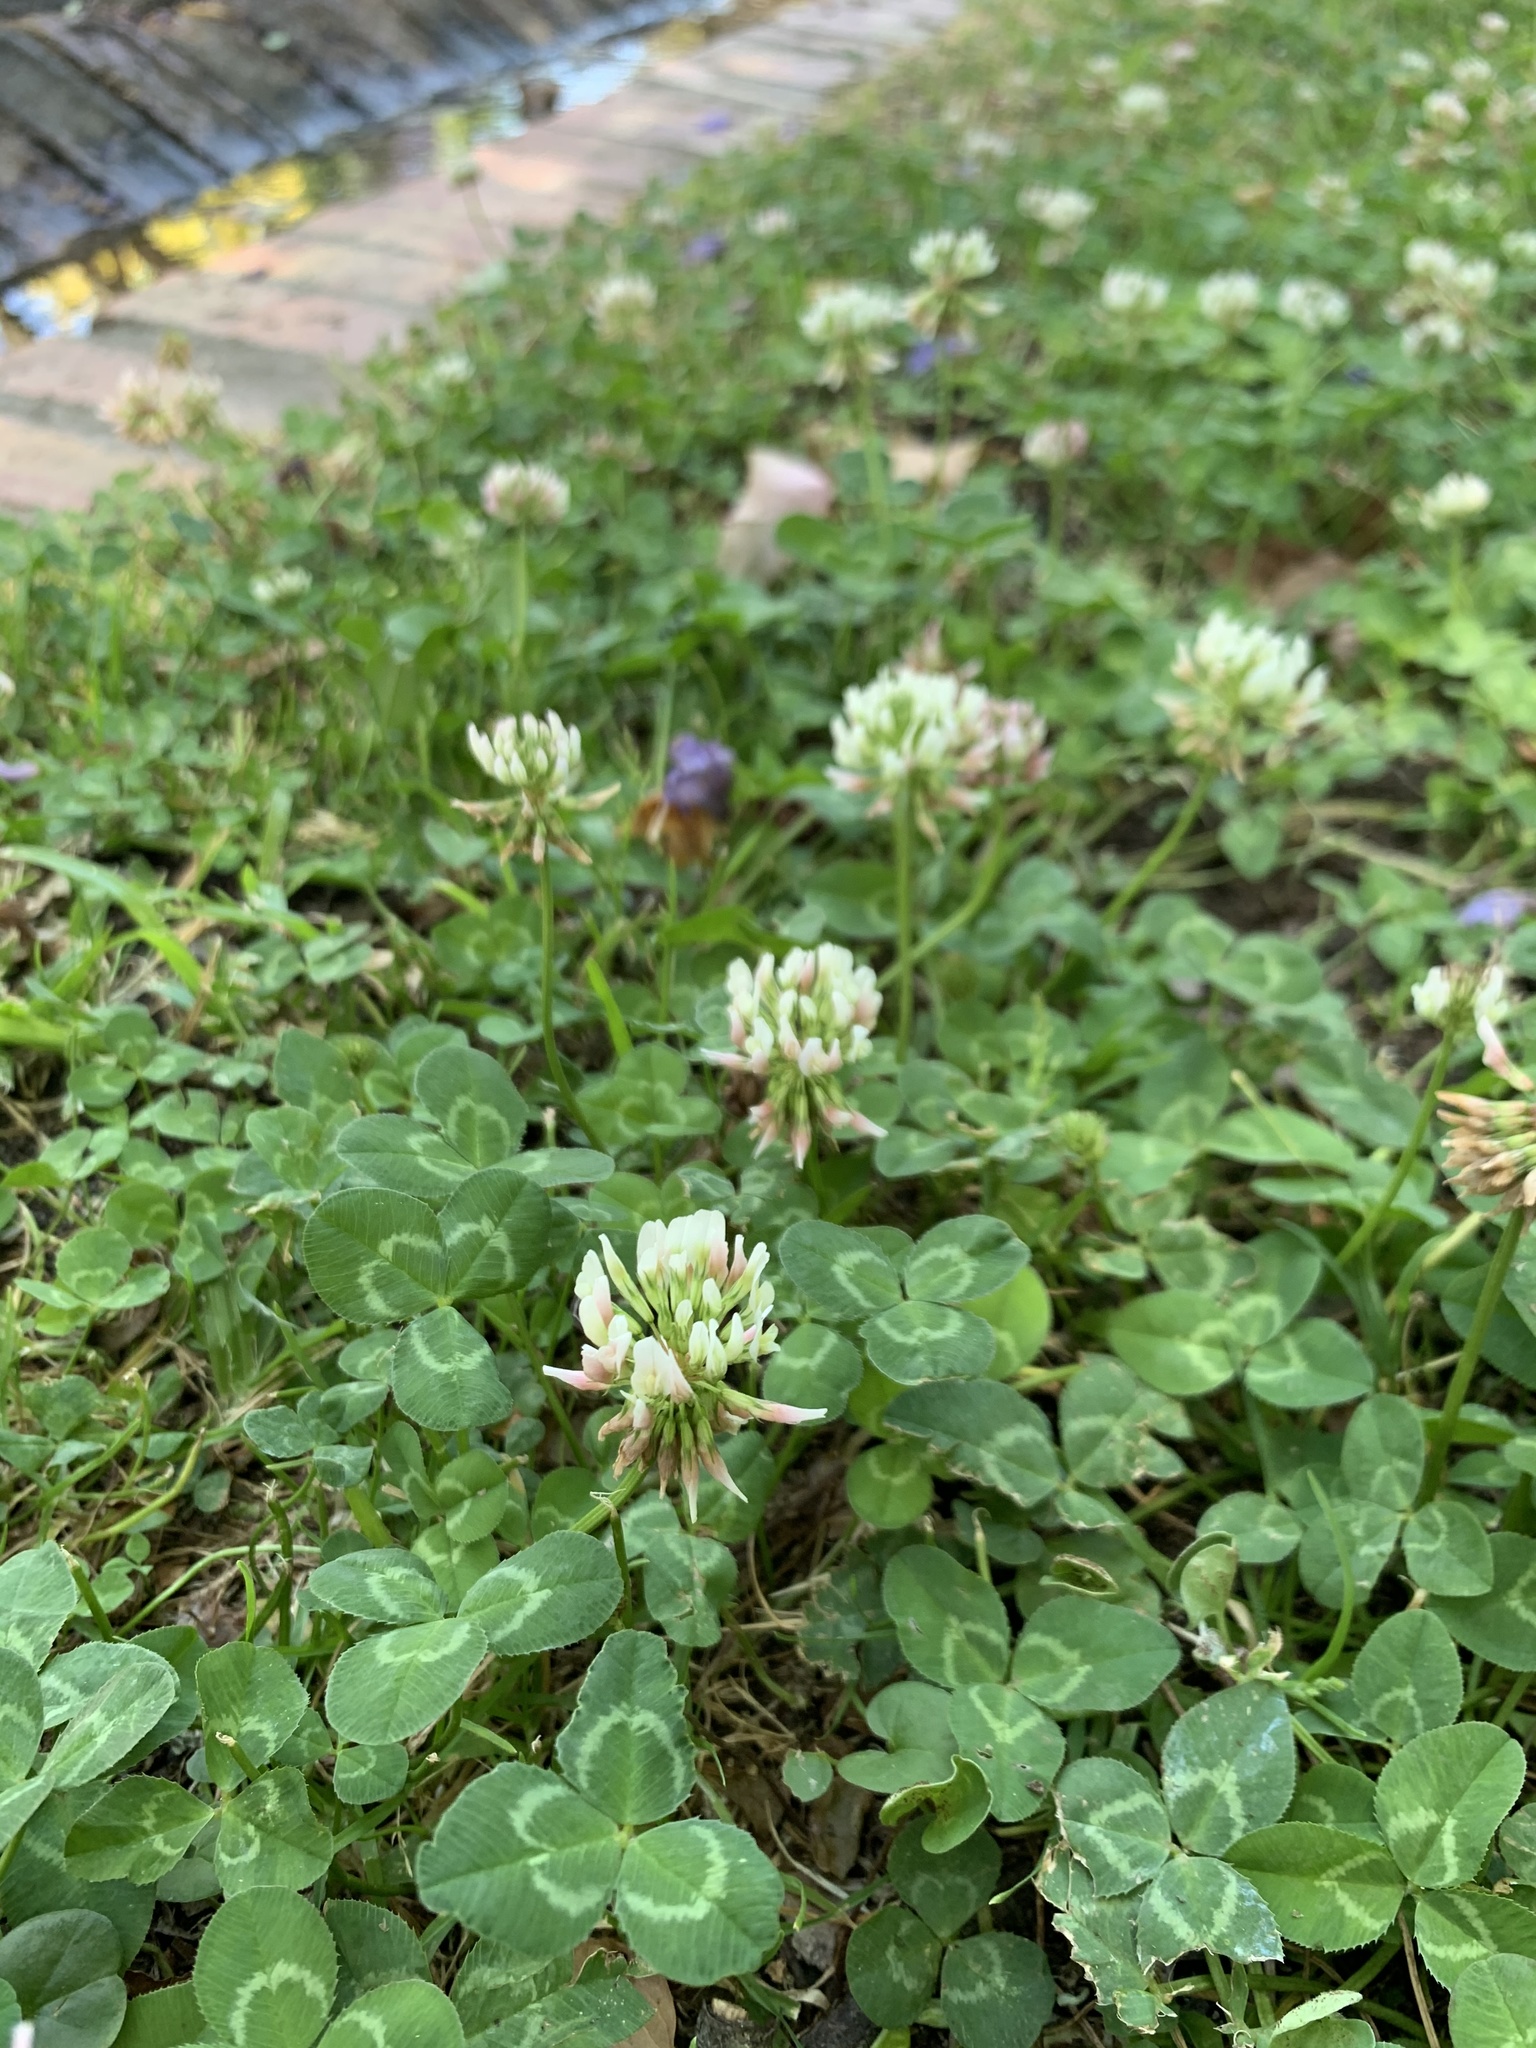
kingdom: Plantae
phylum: Tracheophyta
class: Magnoliopsida
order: Fabales
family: Fabaceae
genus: Trifolium
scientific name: Trifolium repens
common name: White clover
